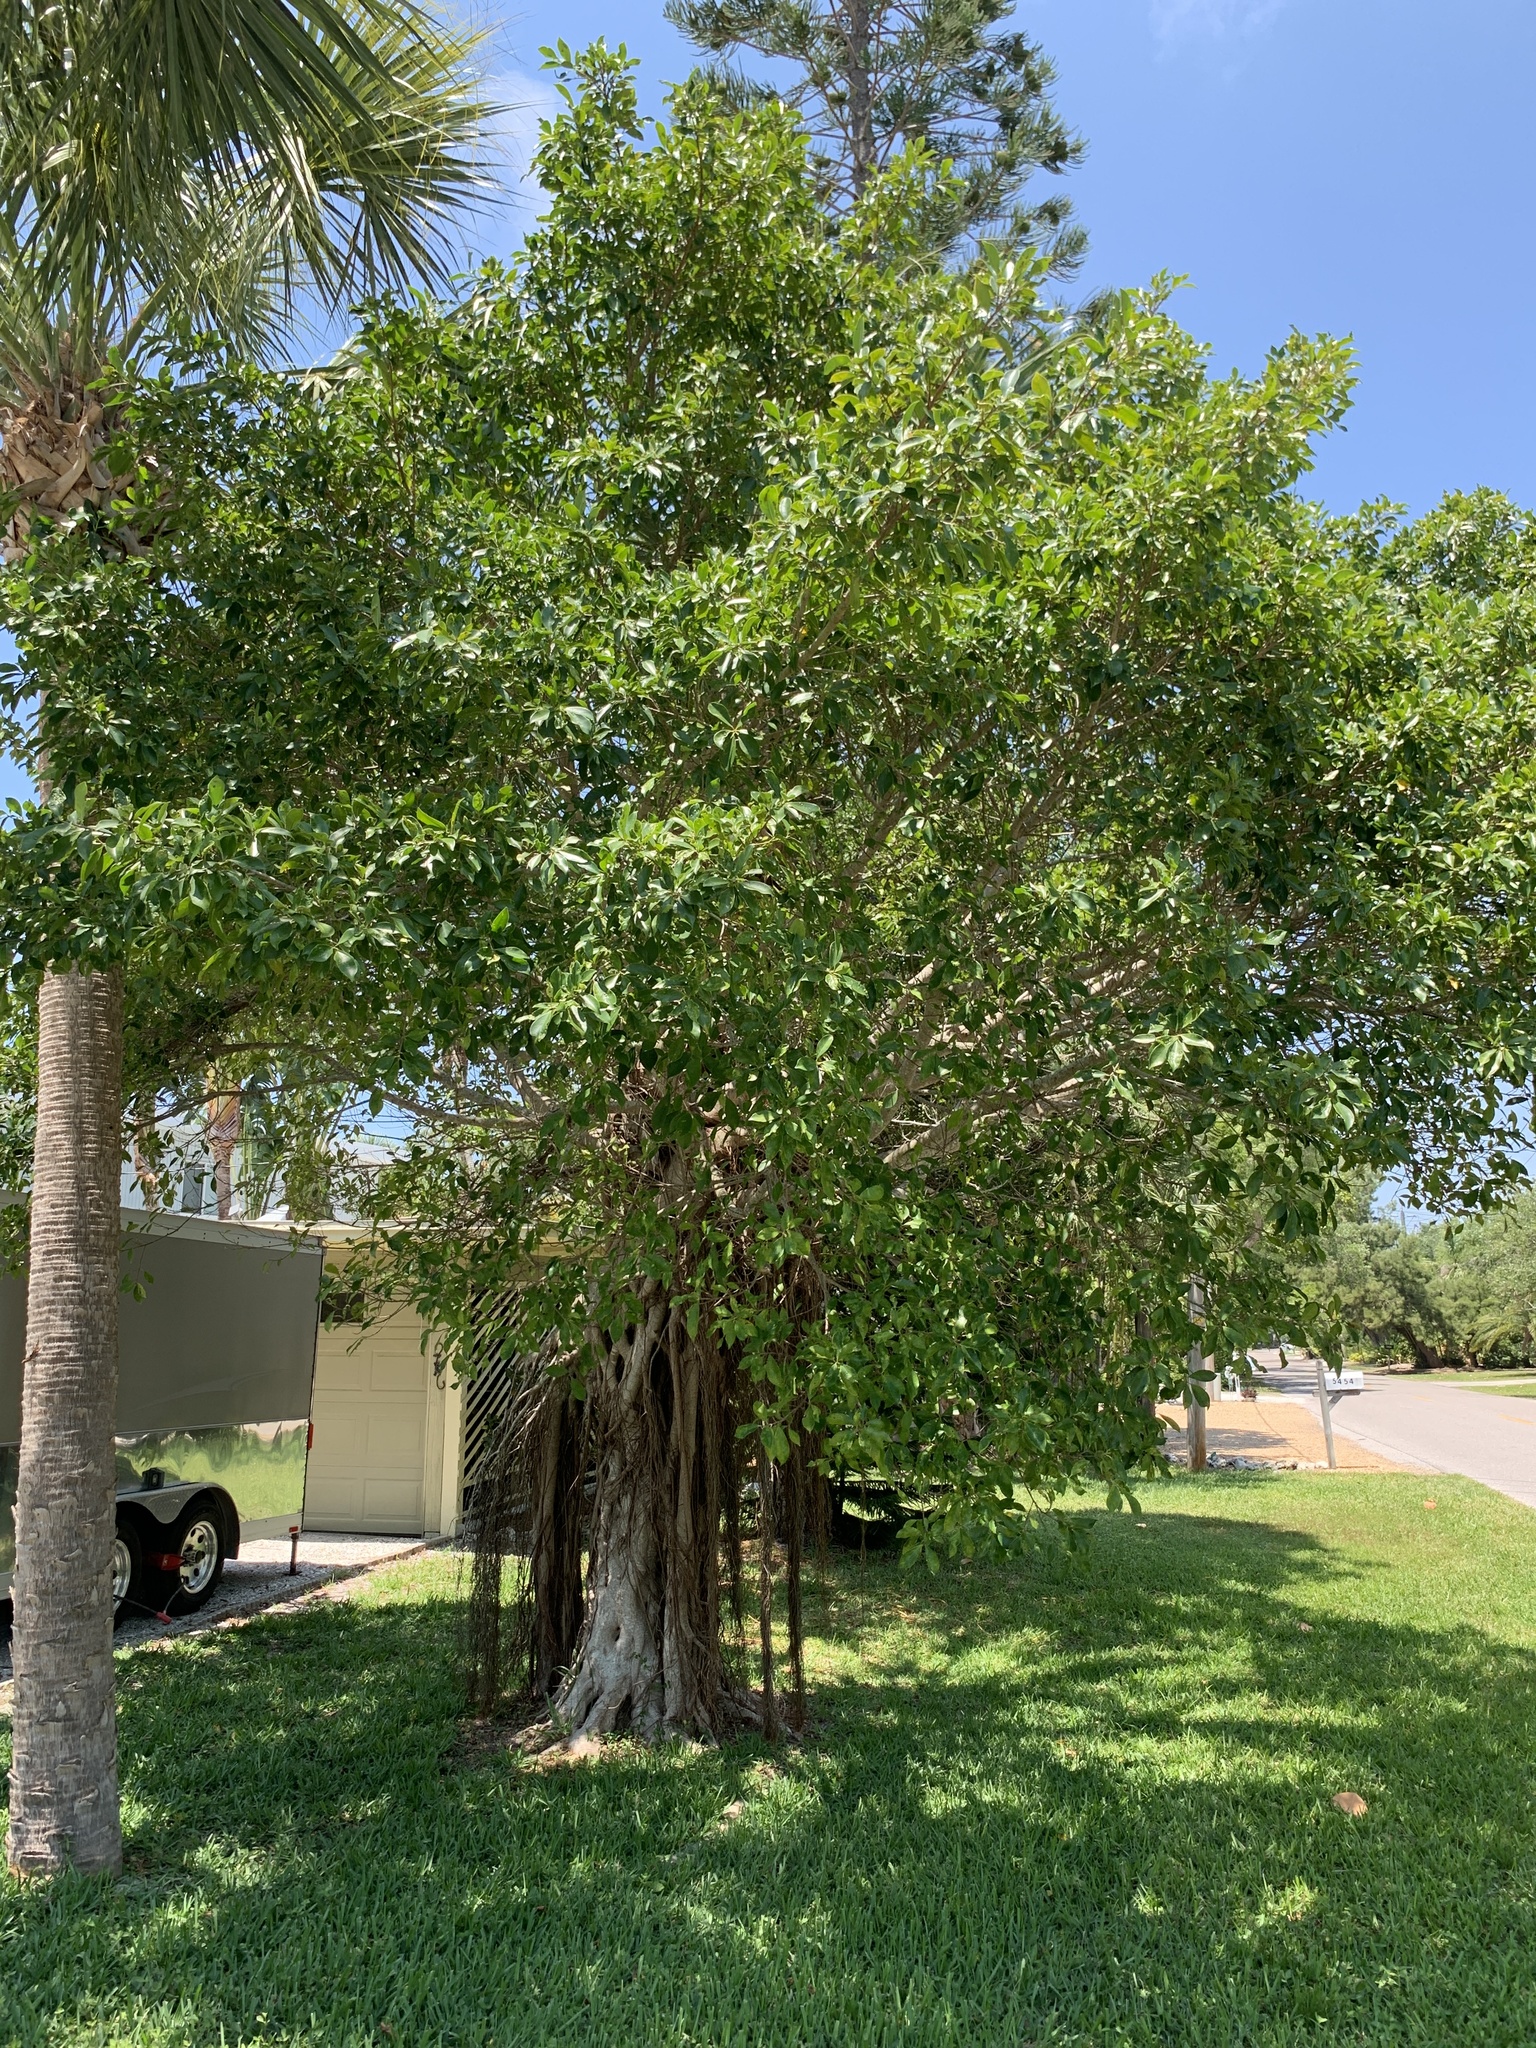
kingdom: Plantae
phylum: Tracheophyta
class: Magnoliopsida
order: Rosales
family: Moraceae
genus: Ficus
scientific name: Ficus aurea
